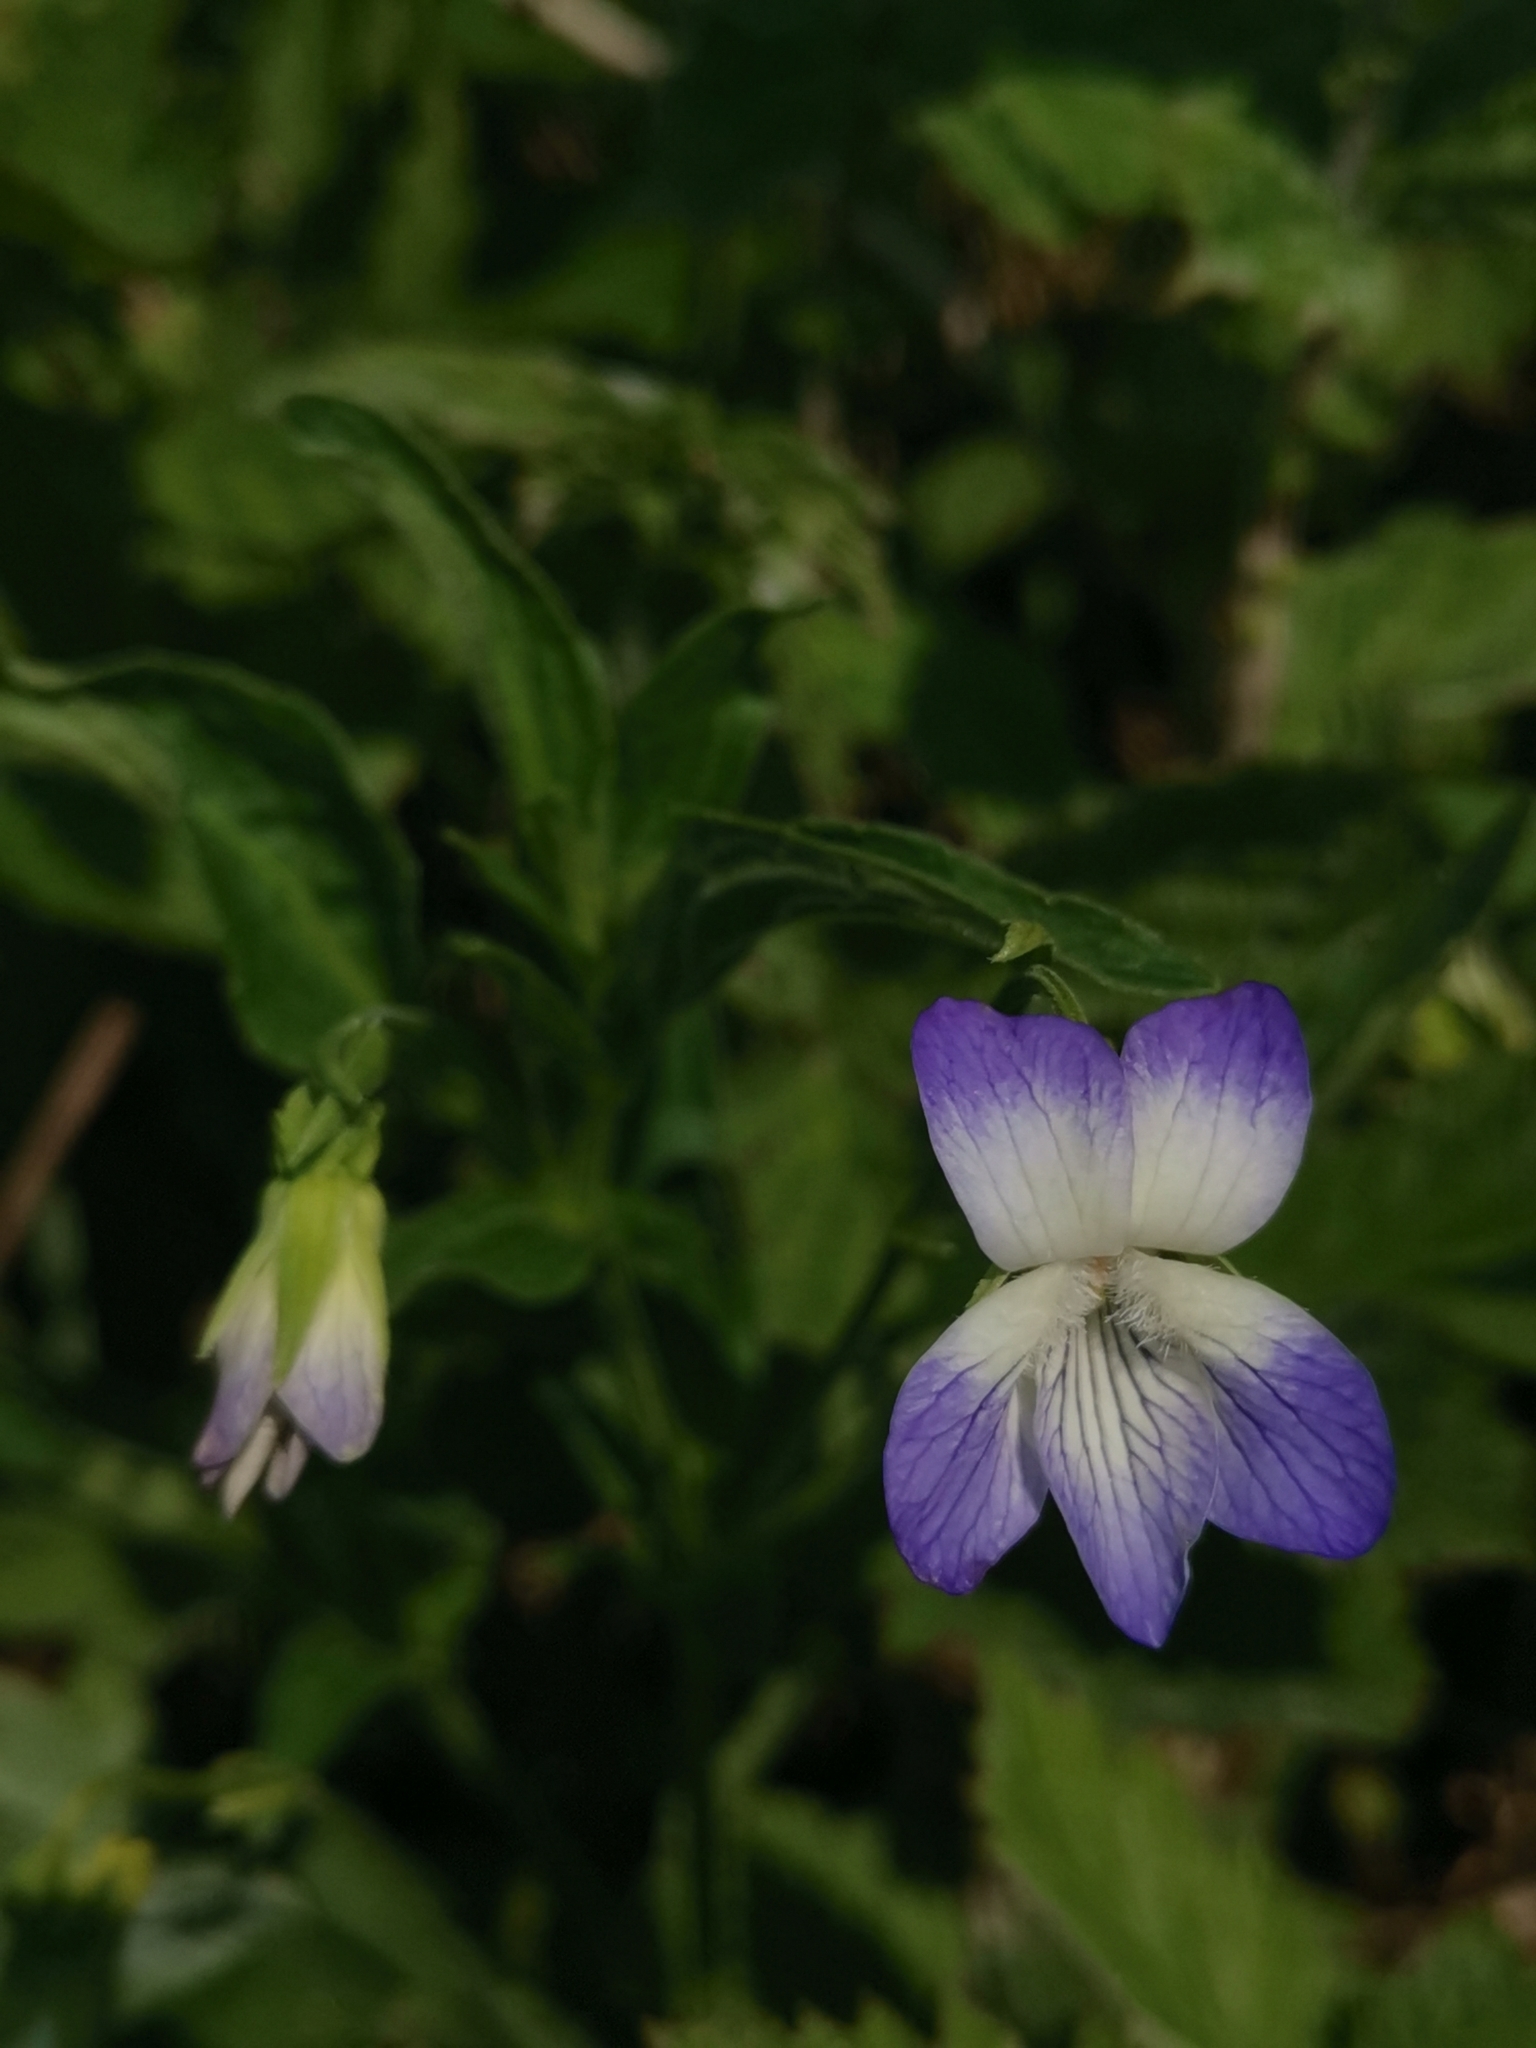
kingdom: Plantae
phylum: Tracheophyta
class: Magnoliopsida
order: Malpighiales
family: Violaceae
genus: Viola
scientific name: Viola elatior
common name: Tall violet
